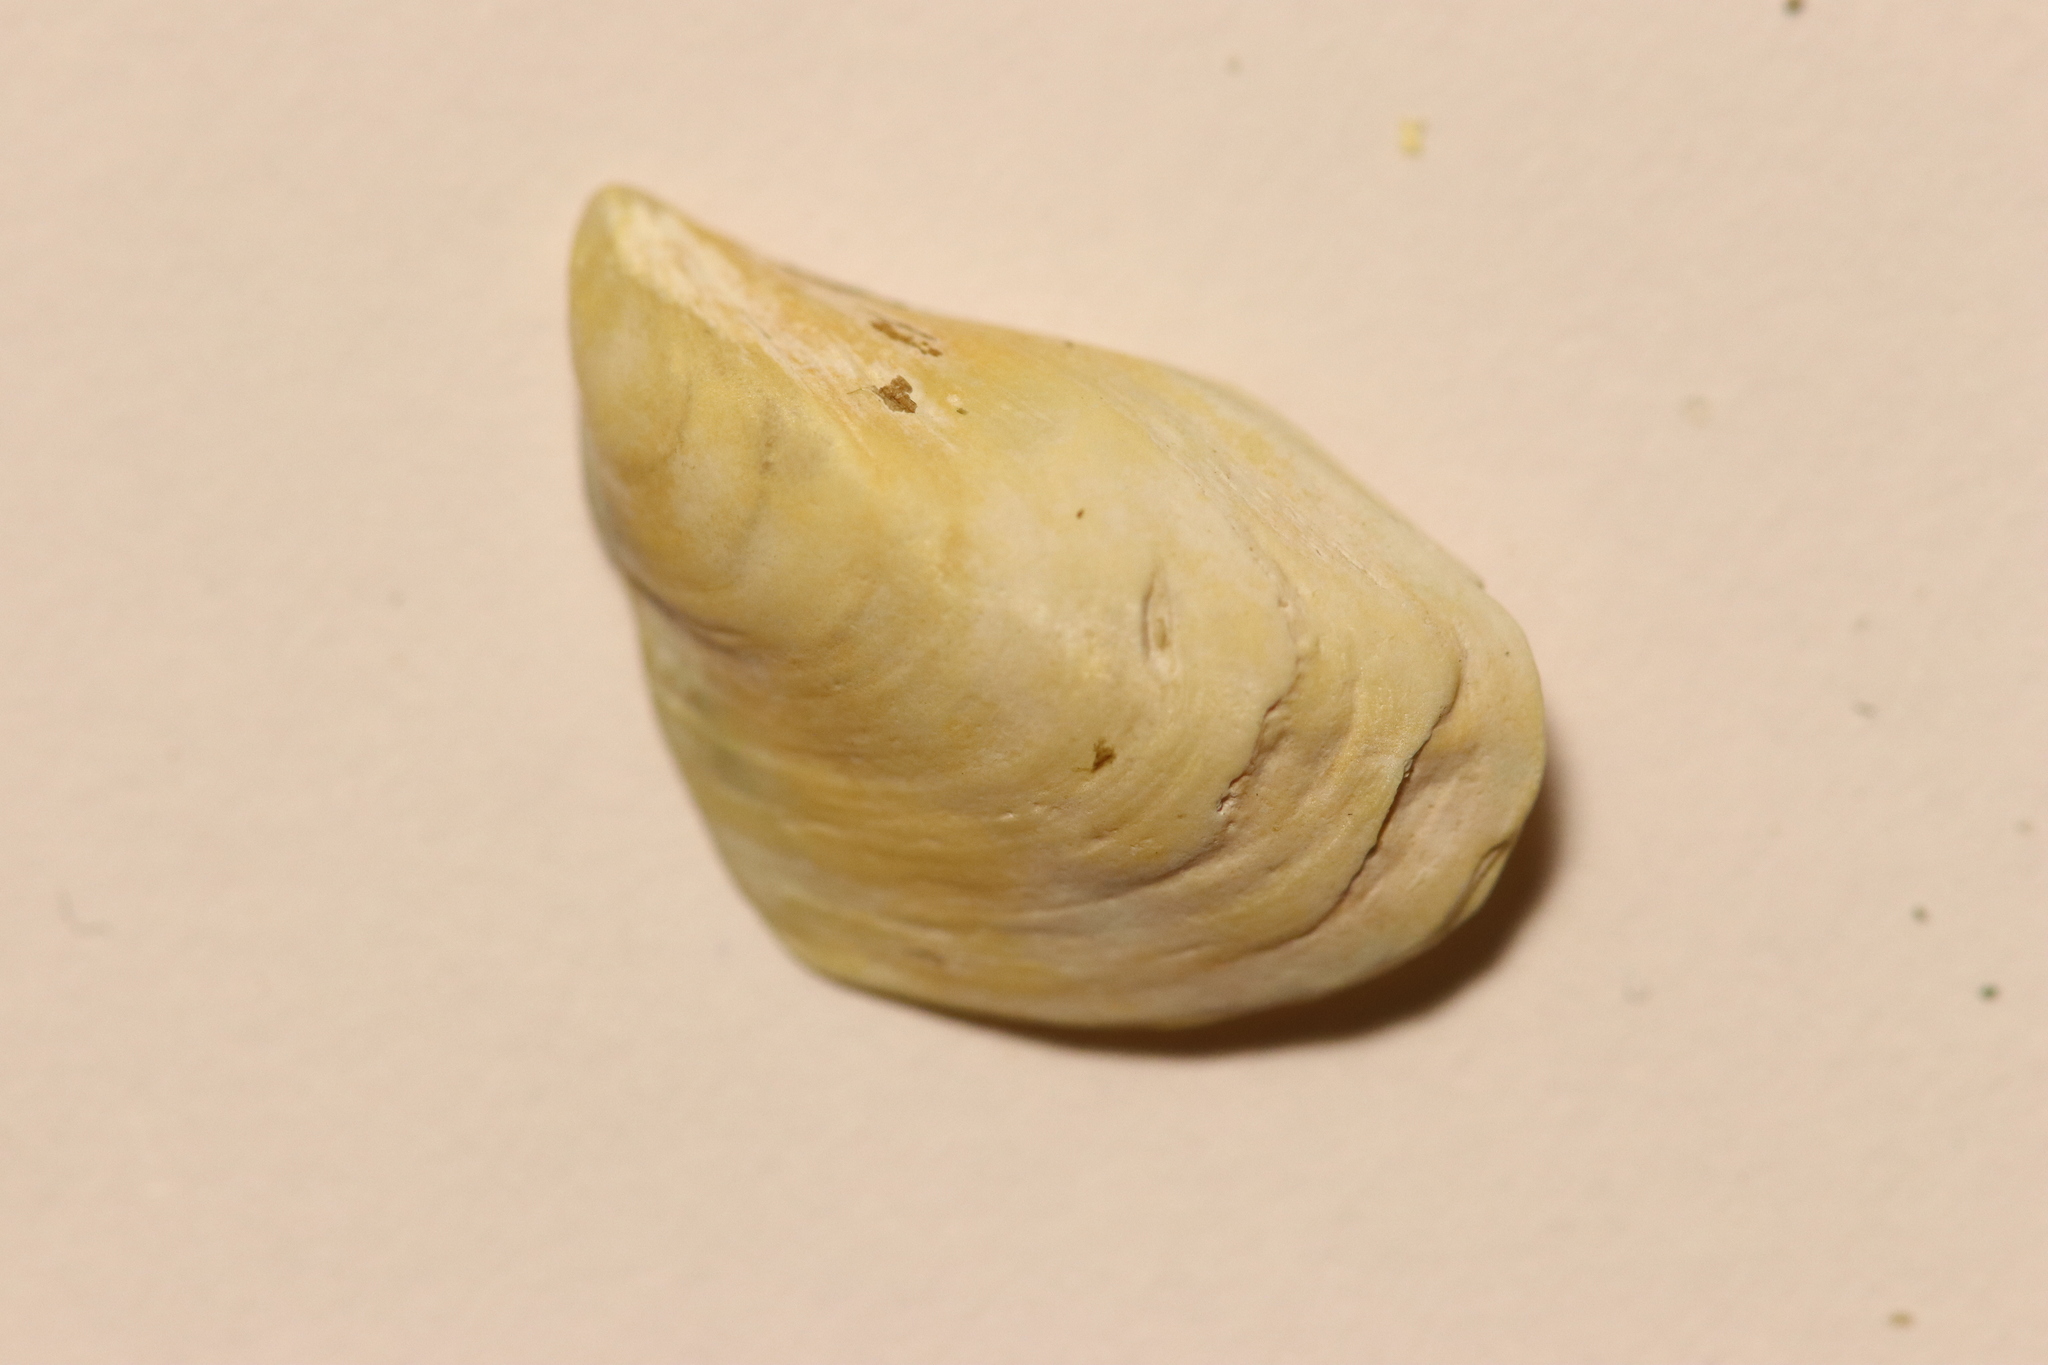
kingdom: Animalia
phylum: Mollusca
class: Bivalvia
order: Myida
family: Dreissenidae
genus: Dreissena
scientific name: Dreissena bugensis
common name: Quagga mussel
